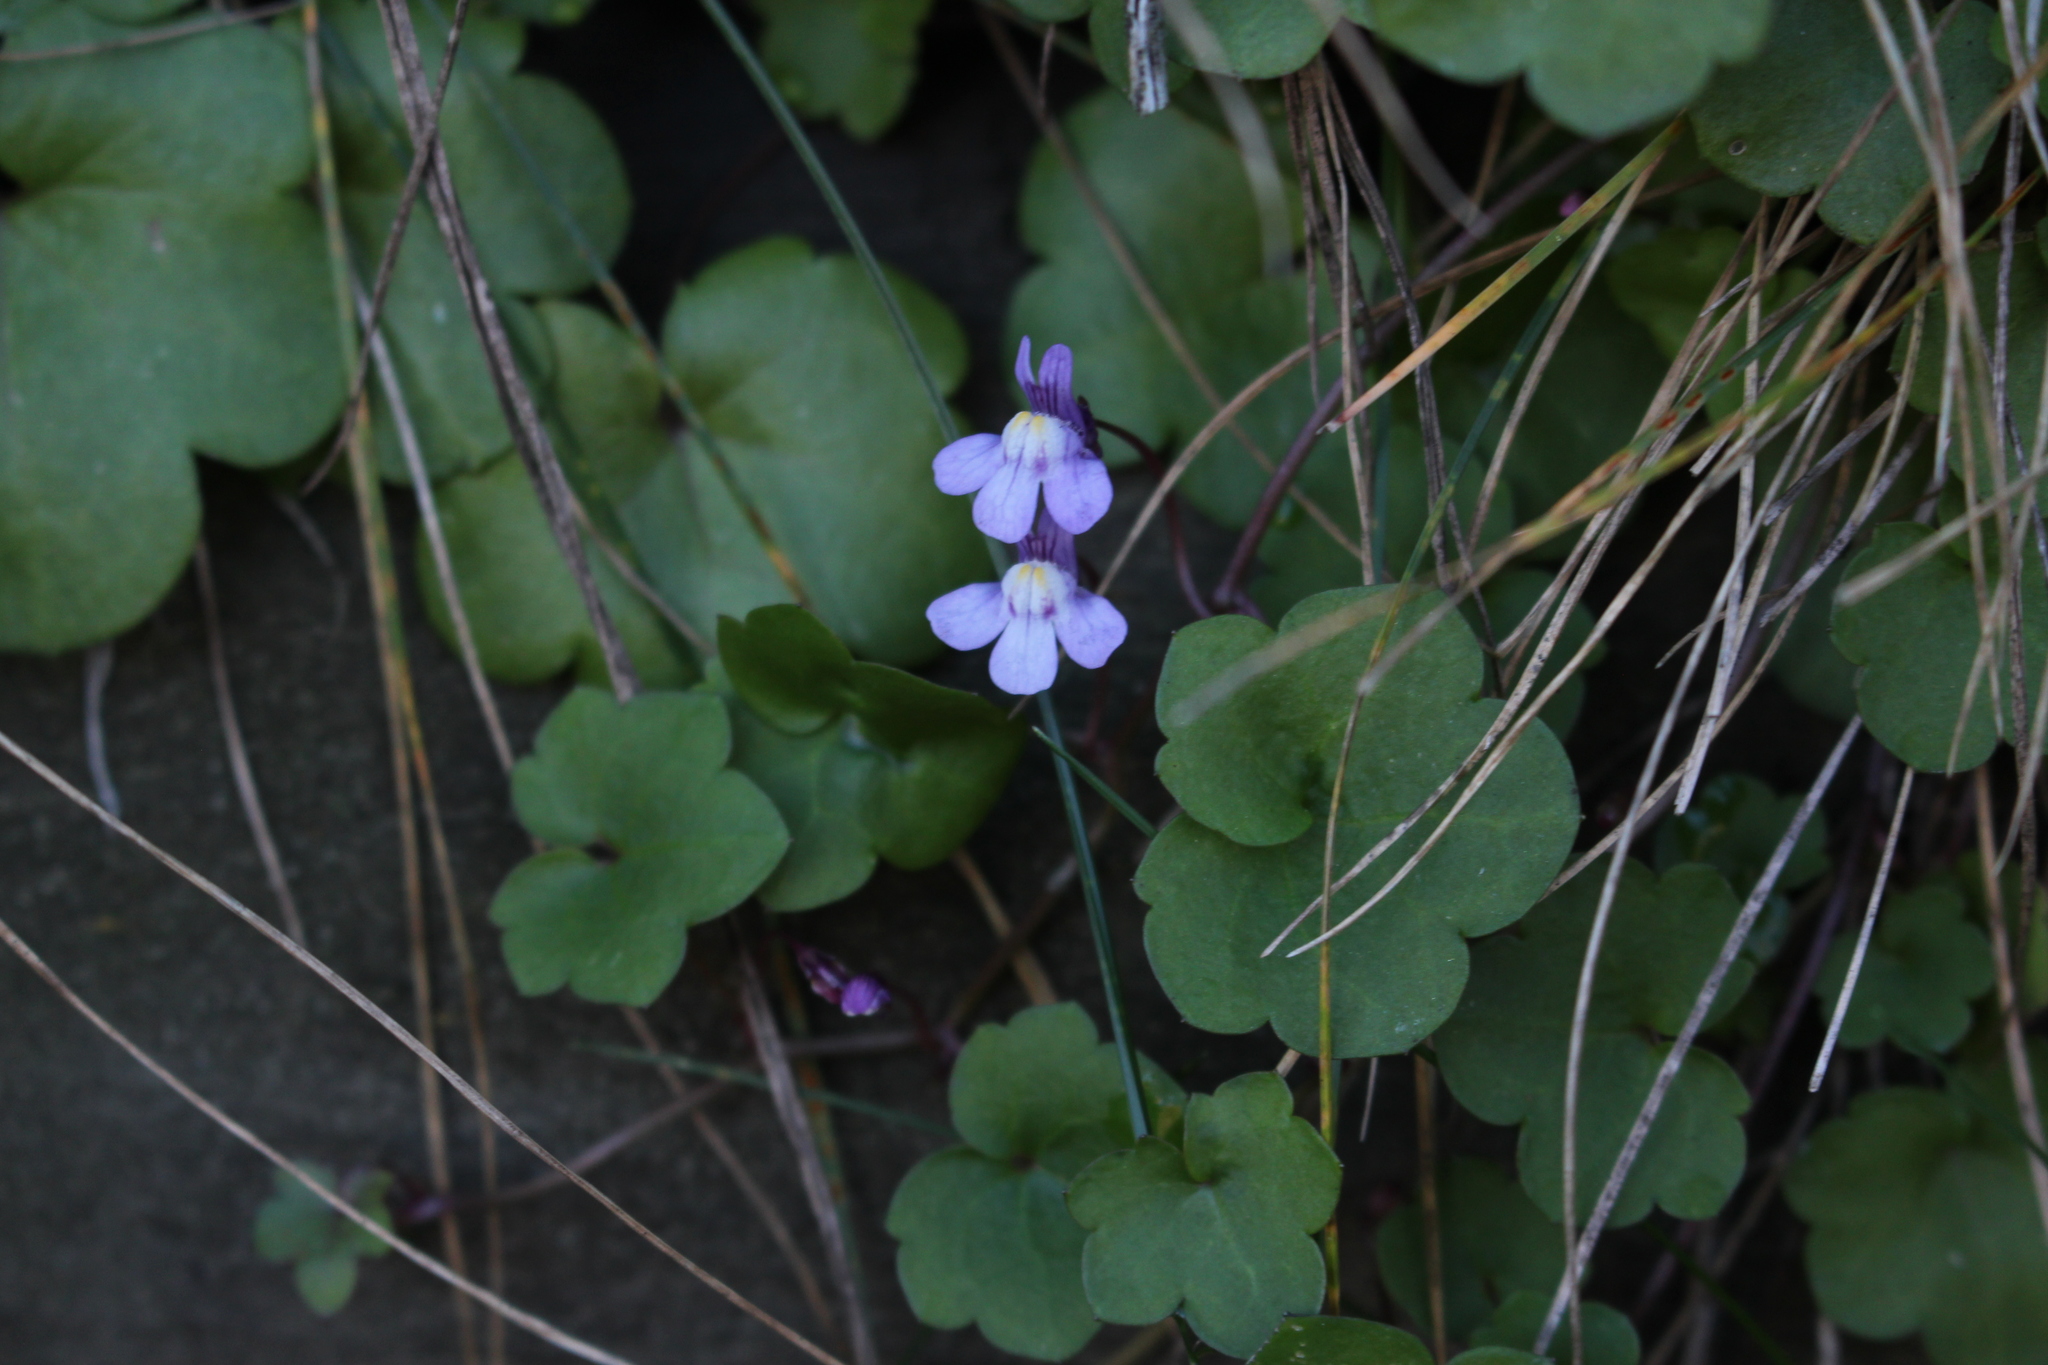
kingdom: Plantae
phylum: Tracheophyta
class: Magnoliopsida
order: Lamiales
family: Plantaginaceae
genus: Cymbalaria
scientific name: Cymbalaria muralis
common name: Ivy-leaved toadflax
